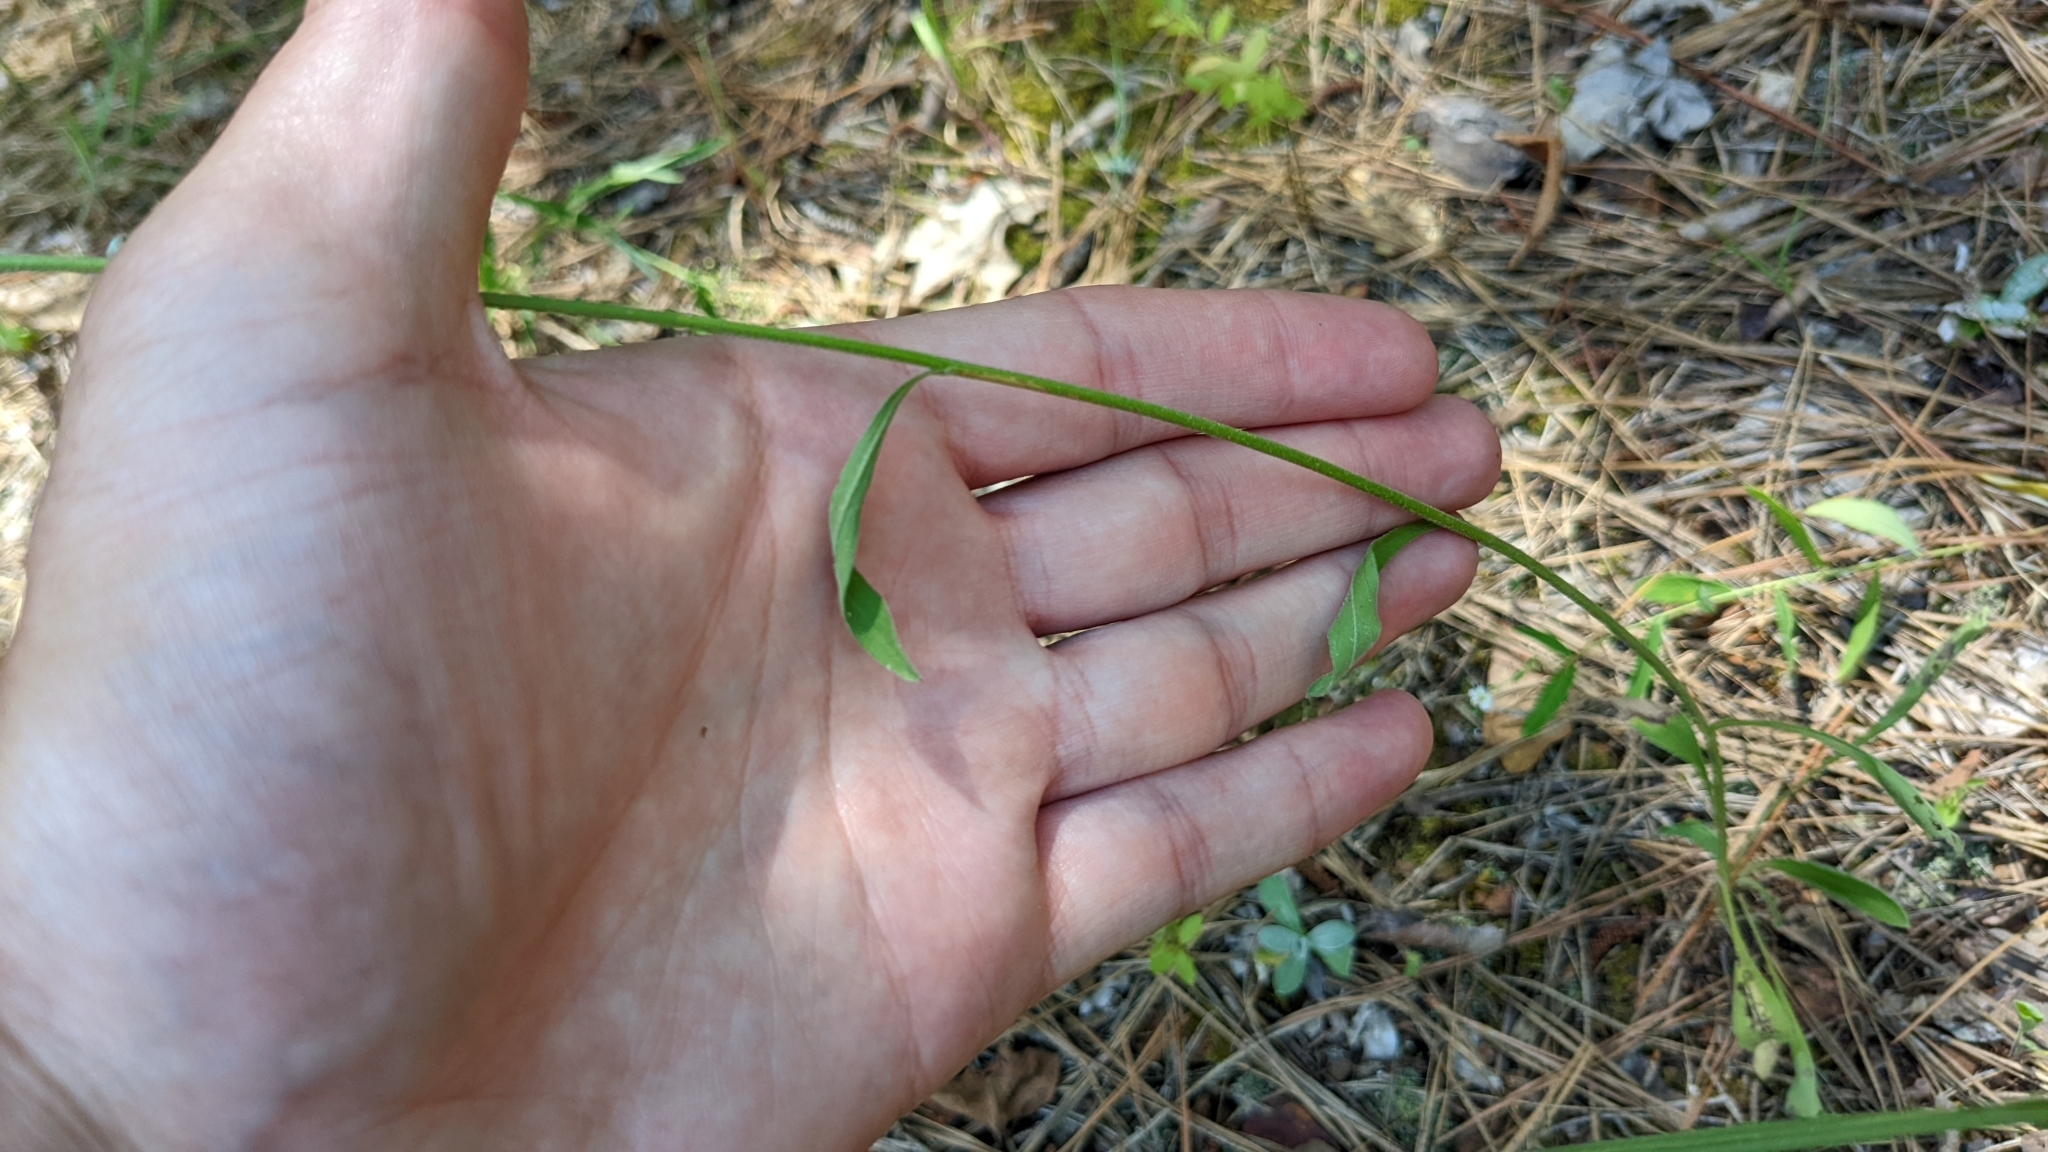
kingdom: Plantae
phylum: Tracheophyta
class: Magnoliopsida
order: Asterales
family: Asteraceae
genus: Erigeron
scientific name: Erigeron strigosus
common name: Common eastern fleabane
